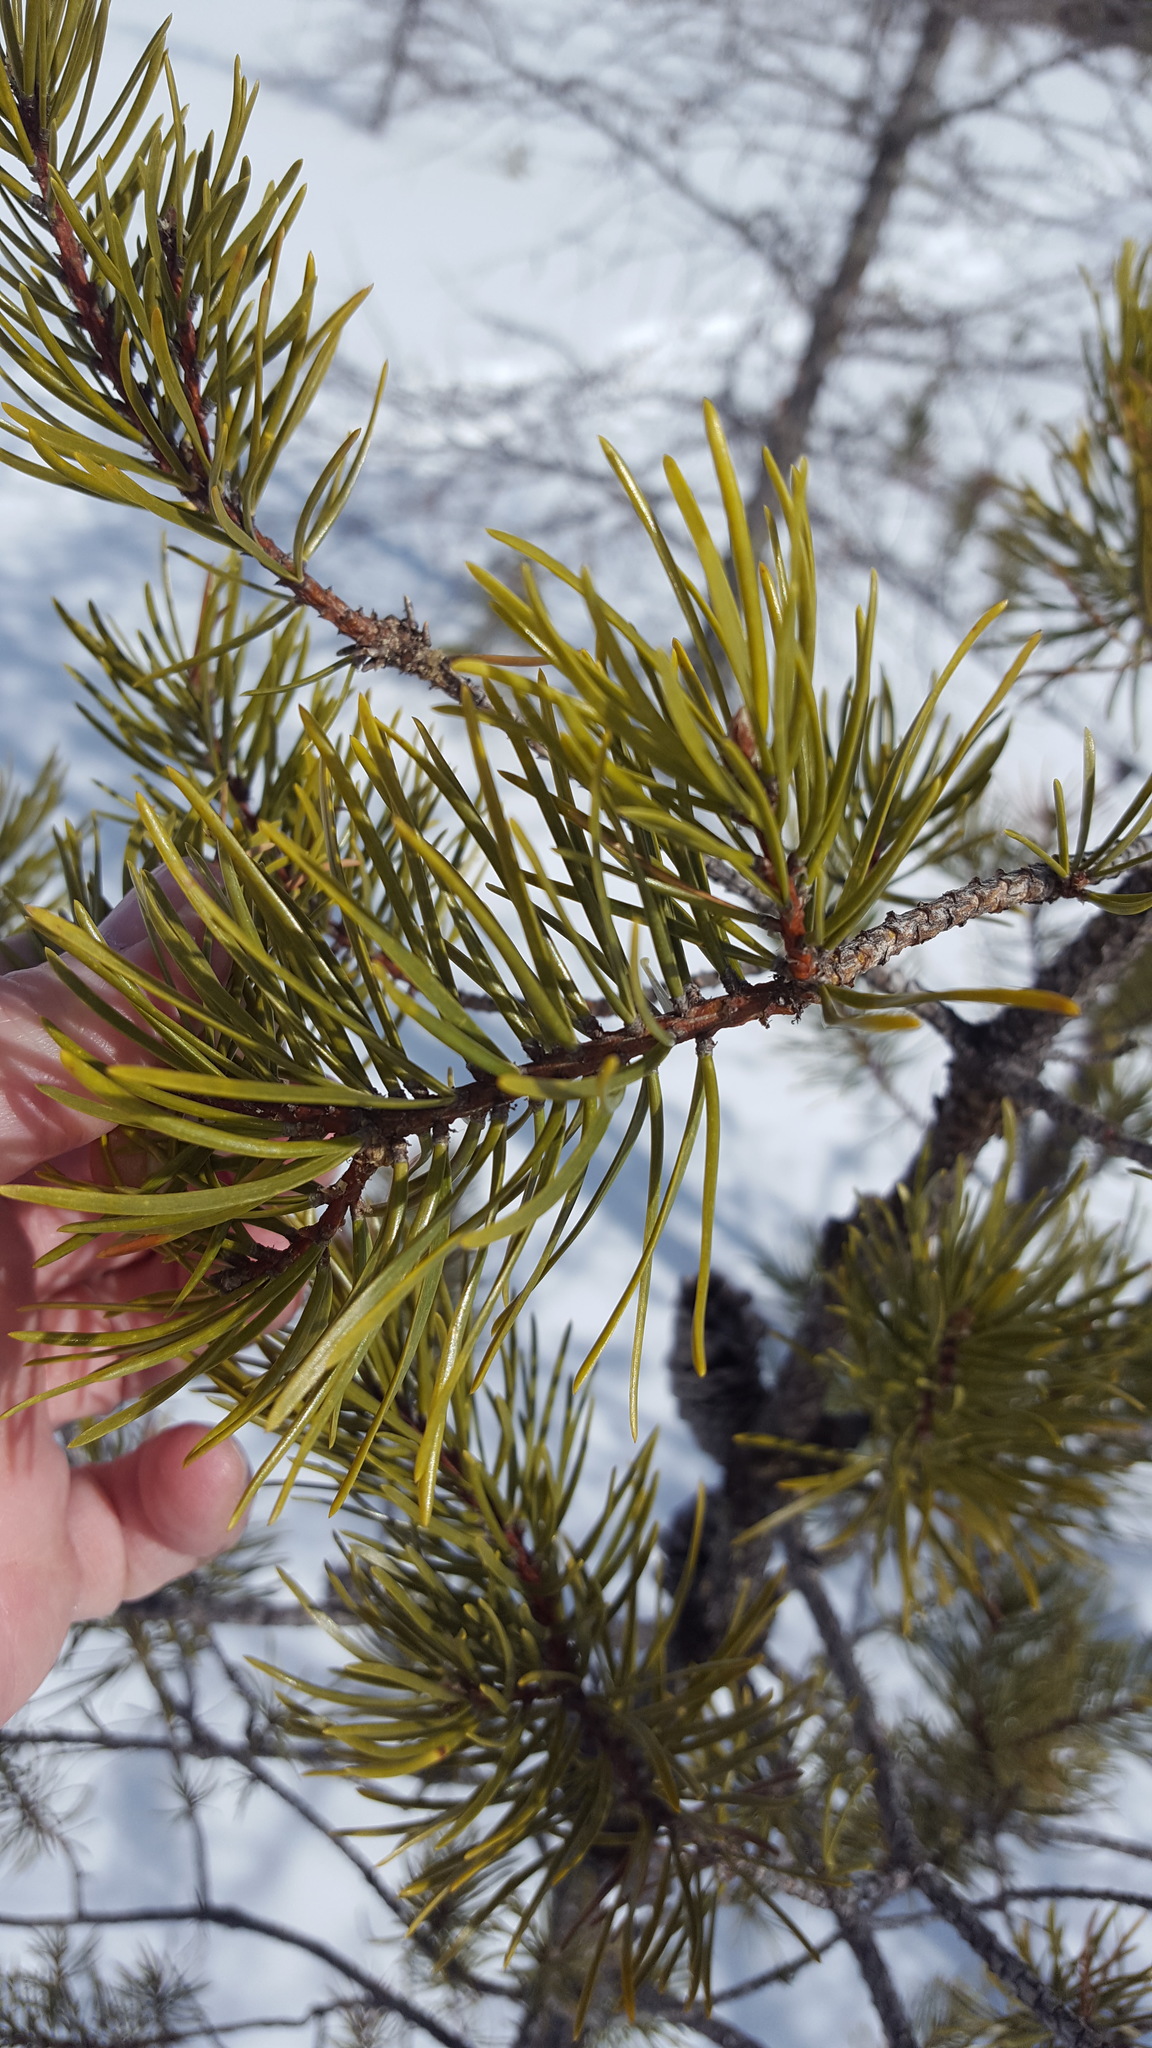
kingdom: Plantae
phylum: Tracheophyta
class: Pinopsida
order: Pinales
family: Pinaceae
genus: Pinus
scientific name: Pinus banksiana
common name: Jack pine
